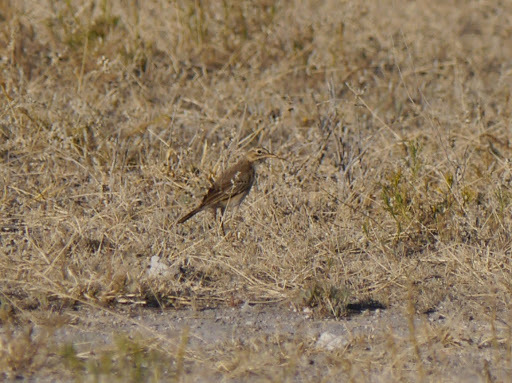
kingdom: Animalia
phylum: Chordata
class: Aves
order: Passeriformes
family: Motacillidae
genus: Anthus
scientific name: Anthus vaalensis
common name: Buffy pipit
